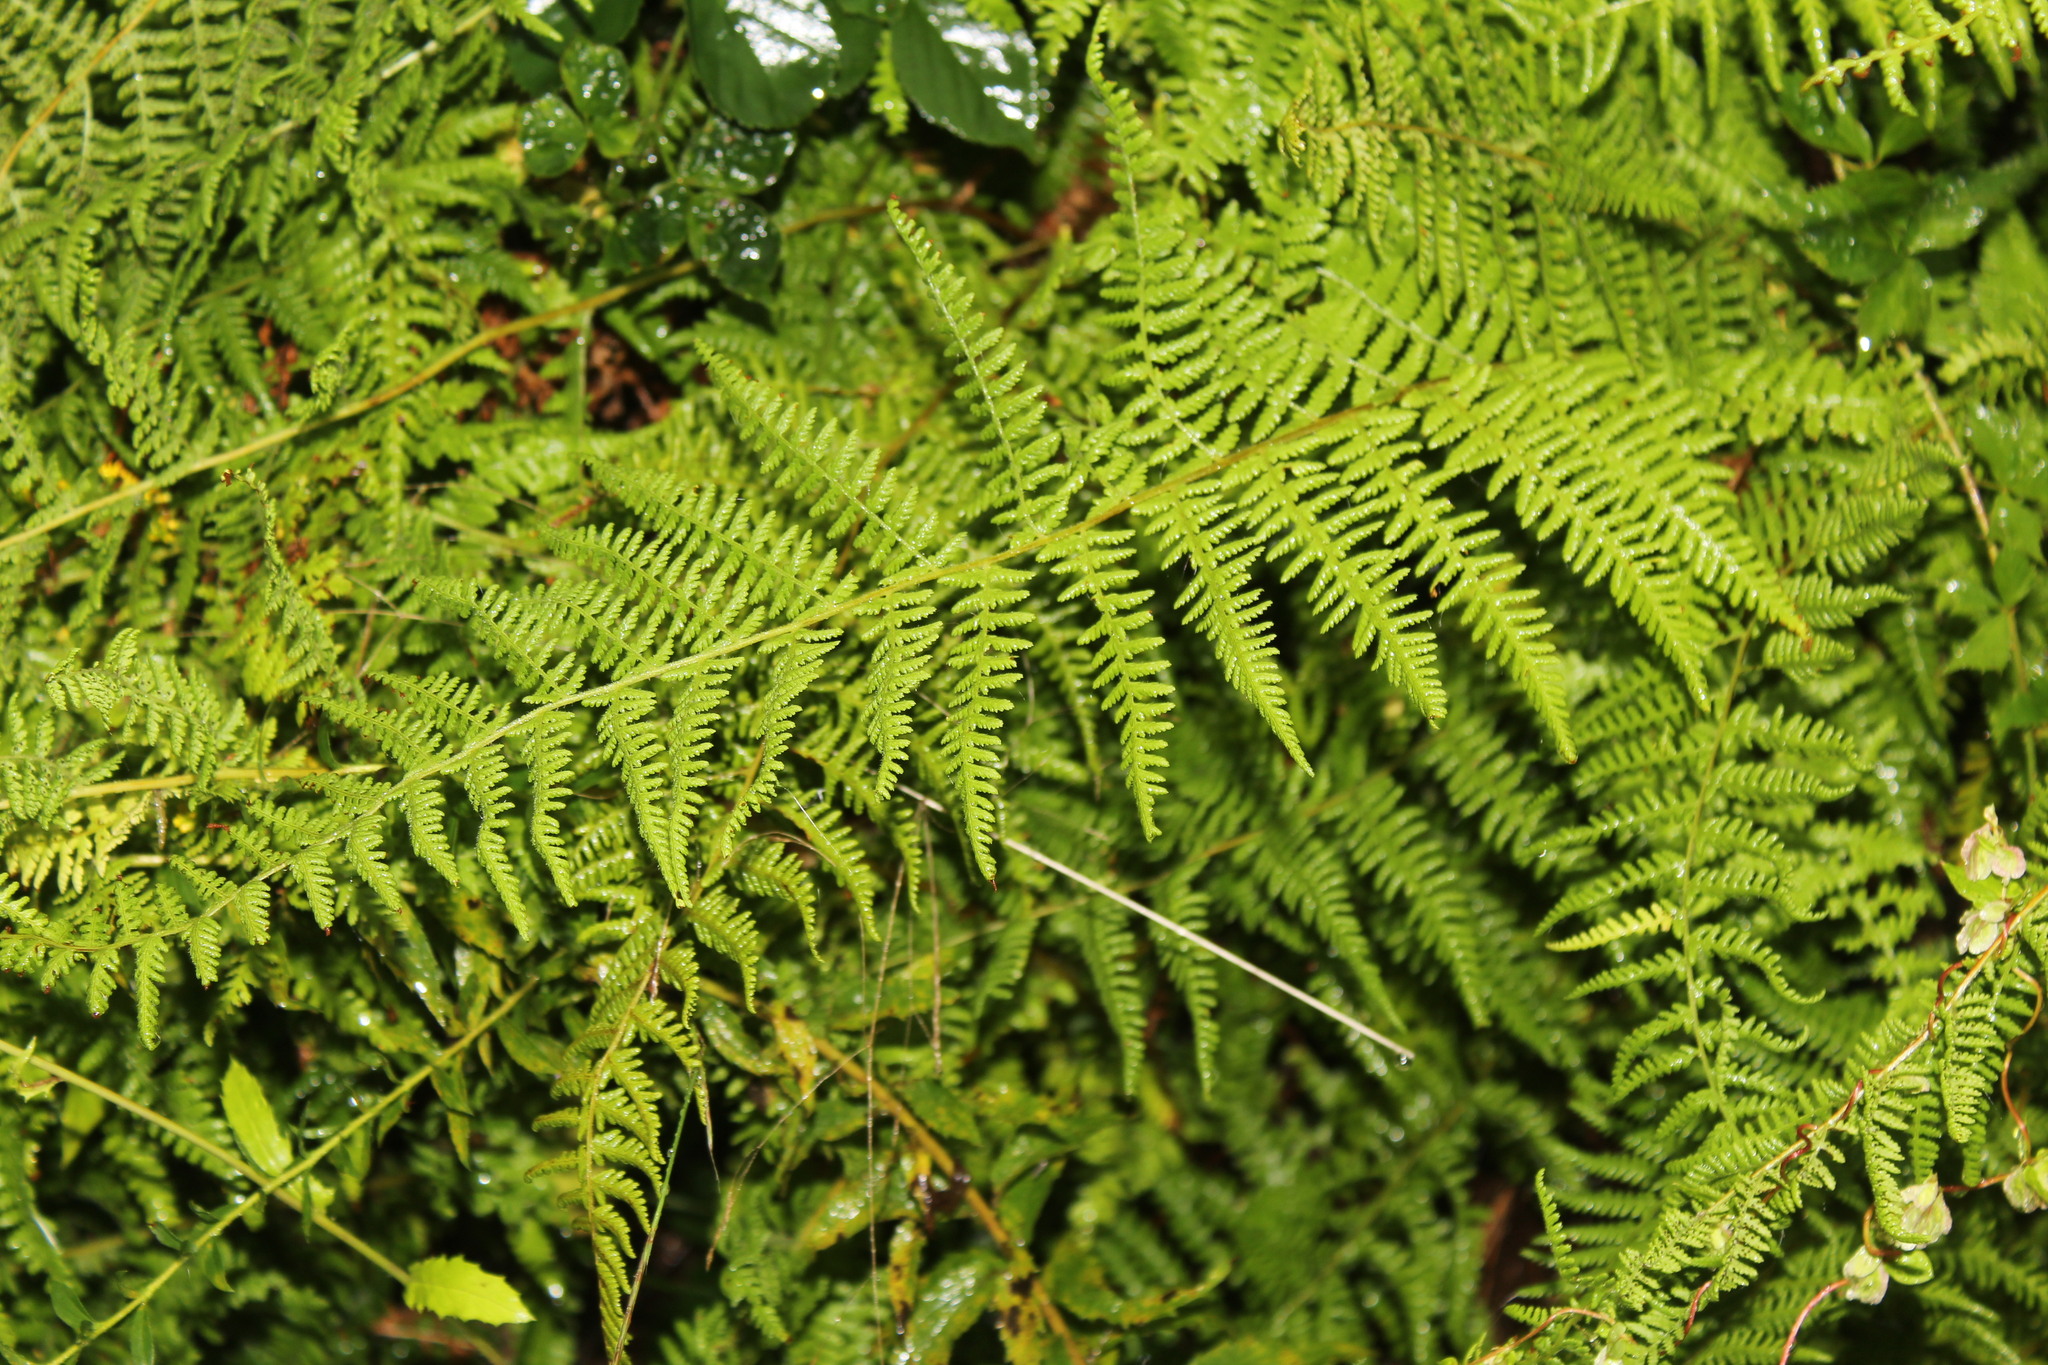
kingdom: Plantae
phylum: Tracheophyta
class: Polypodiopsida
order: Polypodiales
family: Dennstaedtiaceae
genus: Sitobolium
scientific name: Sitobolium punctilobum
